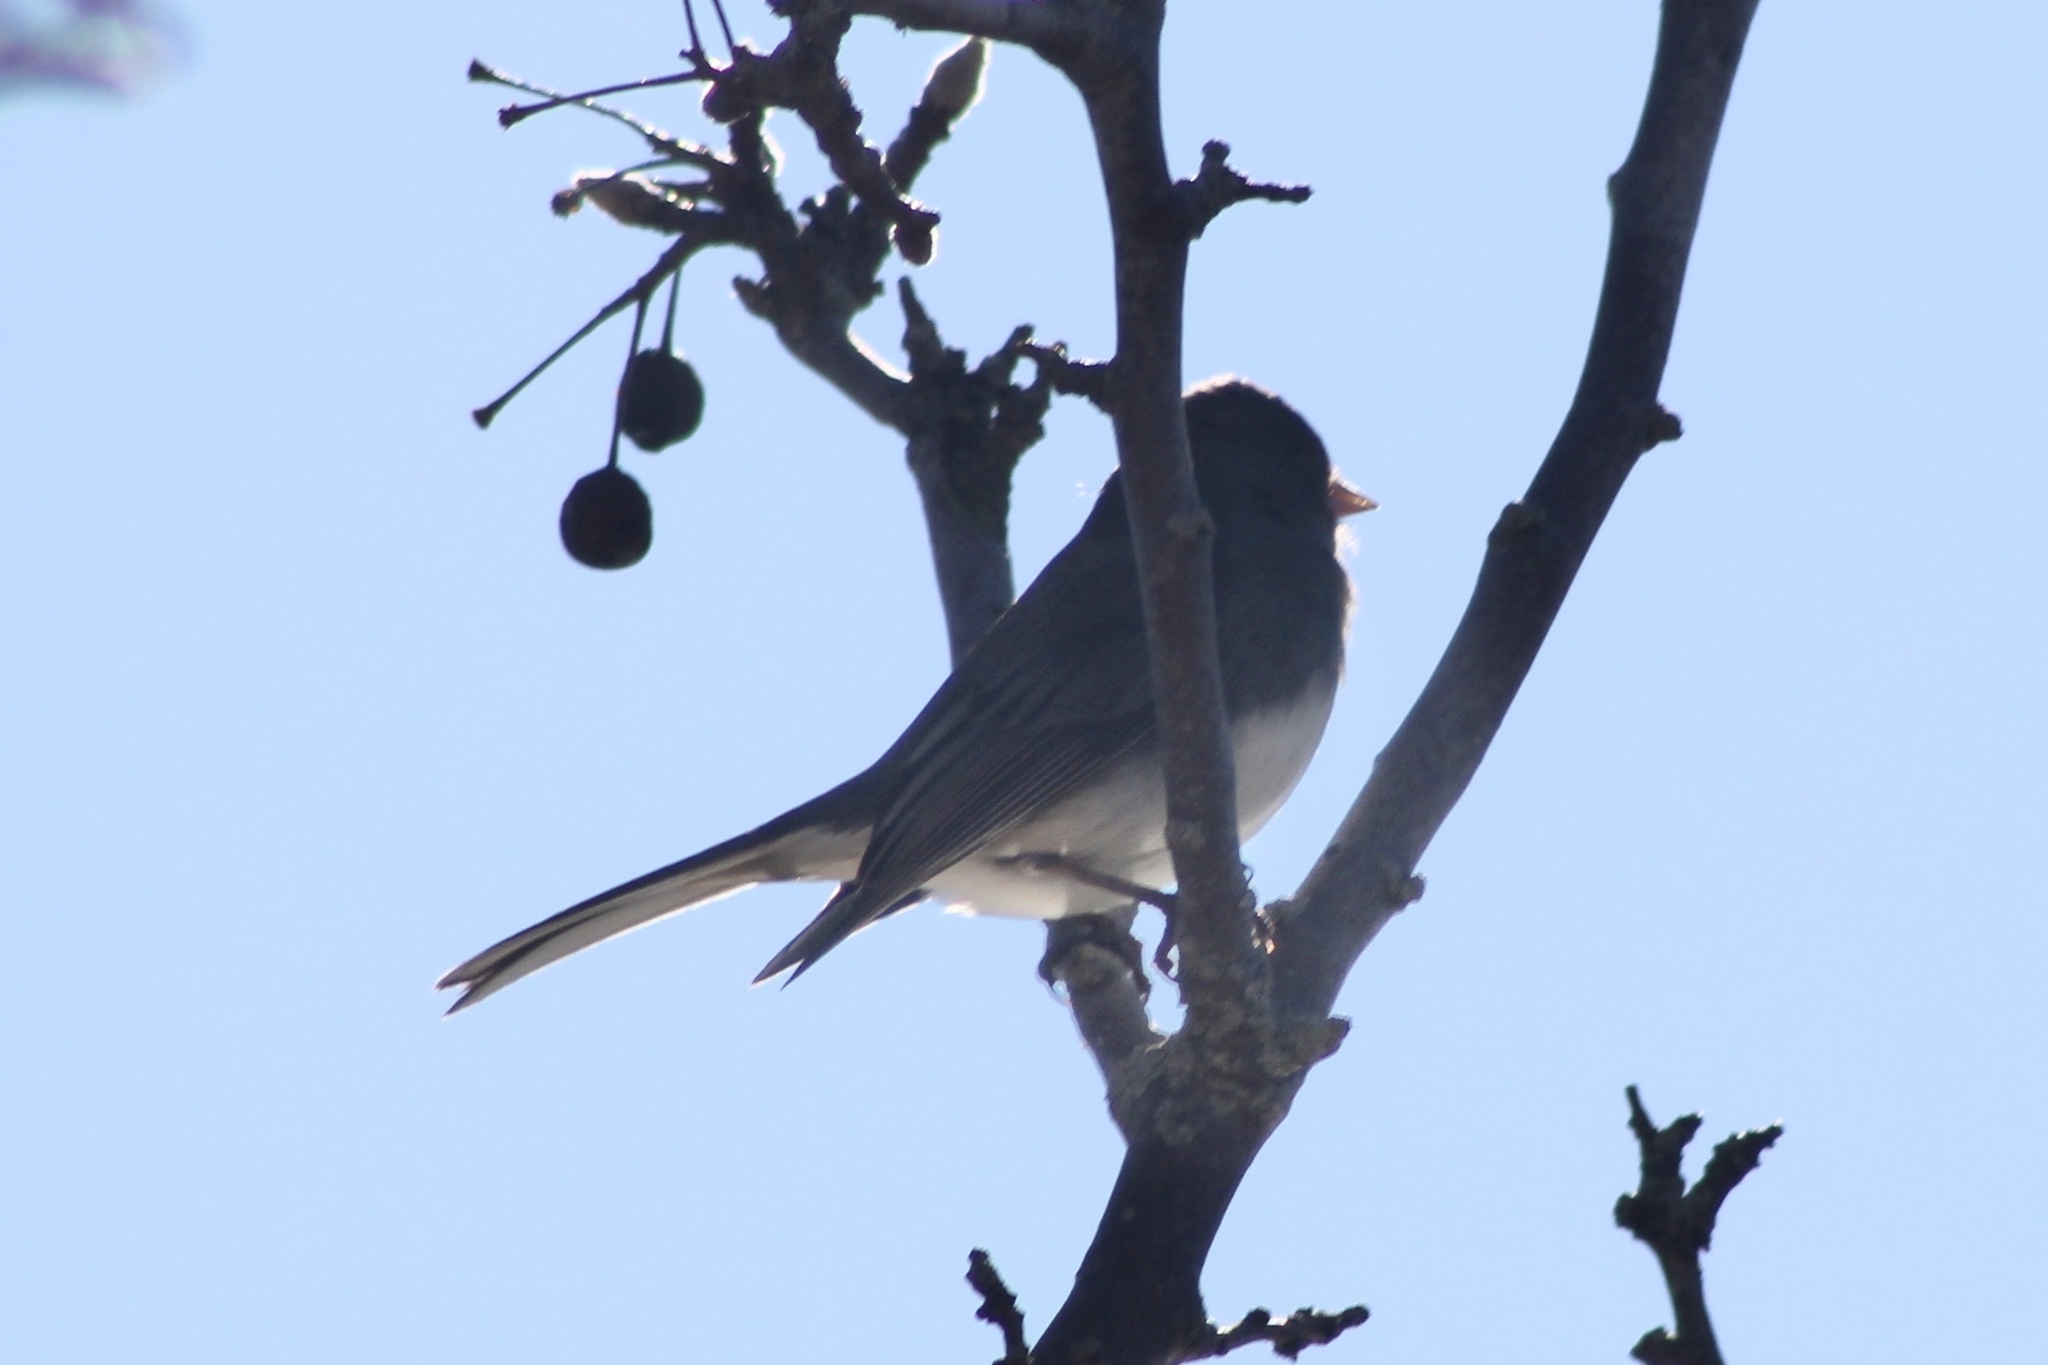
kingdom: Animalia
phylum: Chordata
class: Aves
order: Passeriformes
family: Passerellidae
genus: Junco
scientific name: Junco hyemalis
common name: Dark-eyed junco
